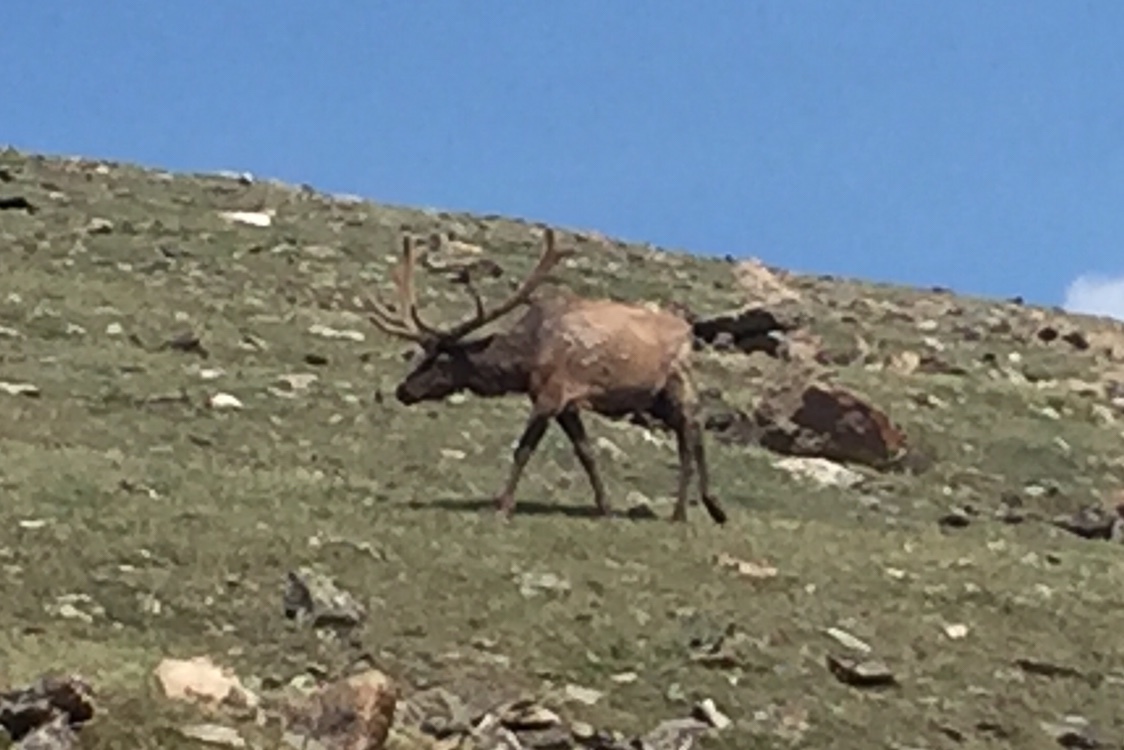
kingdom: Animalia
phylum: Chordata
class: Mammalia
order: Artiodactyla
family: Cervidae
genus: Cervus
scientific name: Cervus elaphus
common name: Red deer
